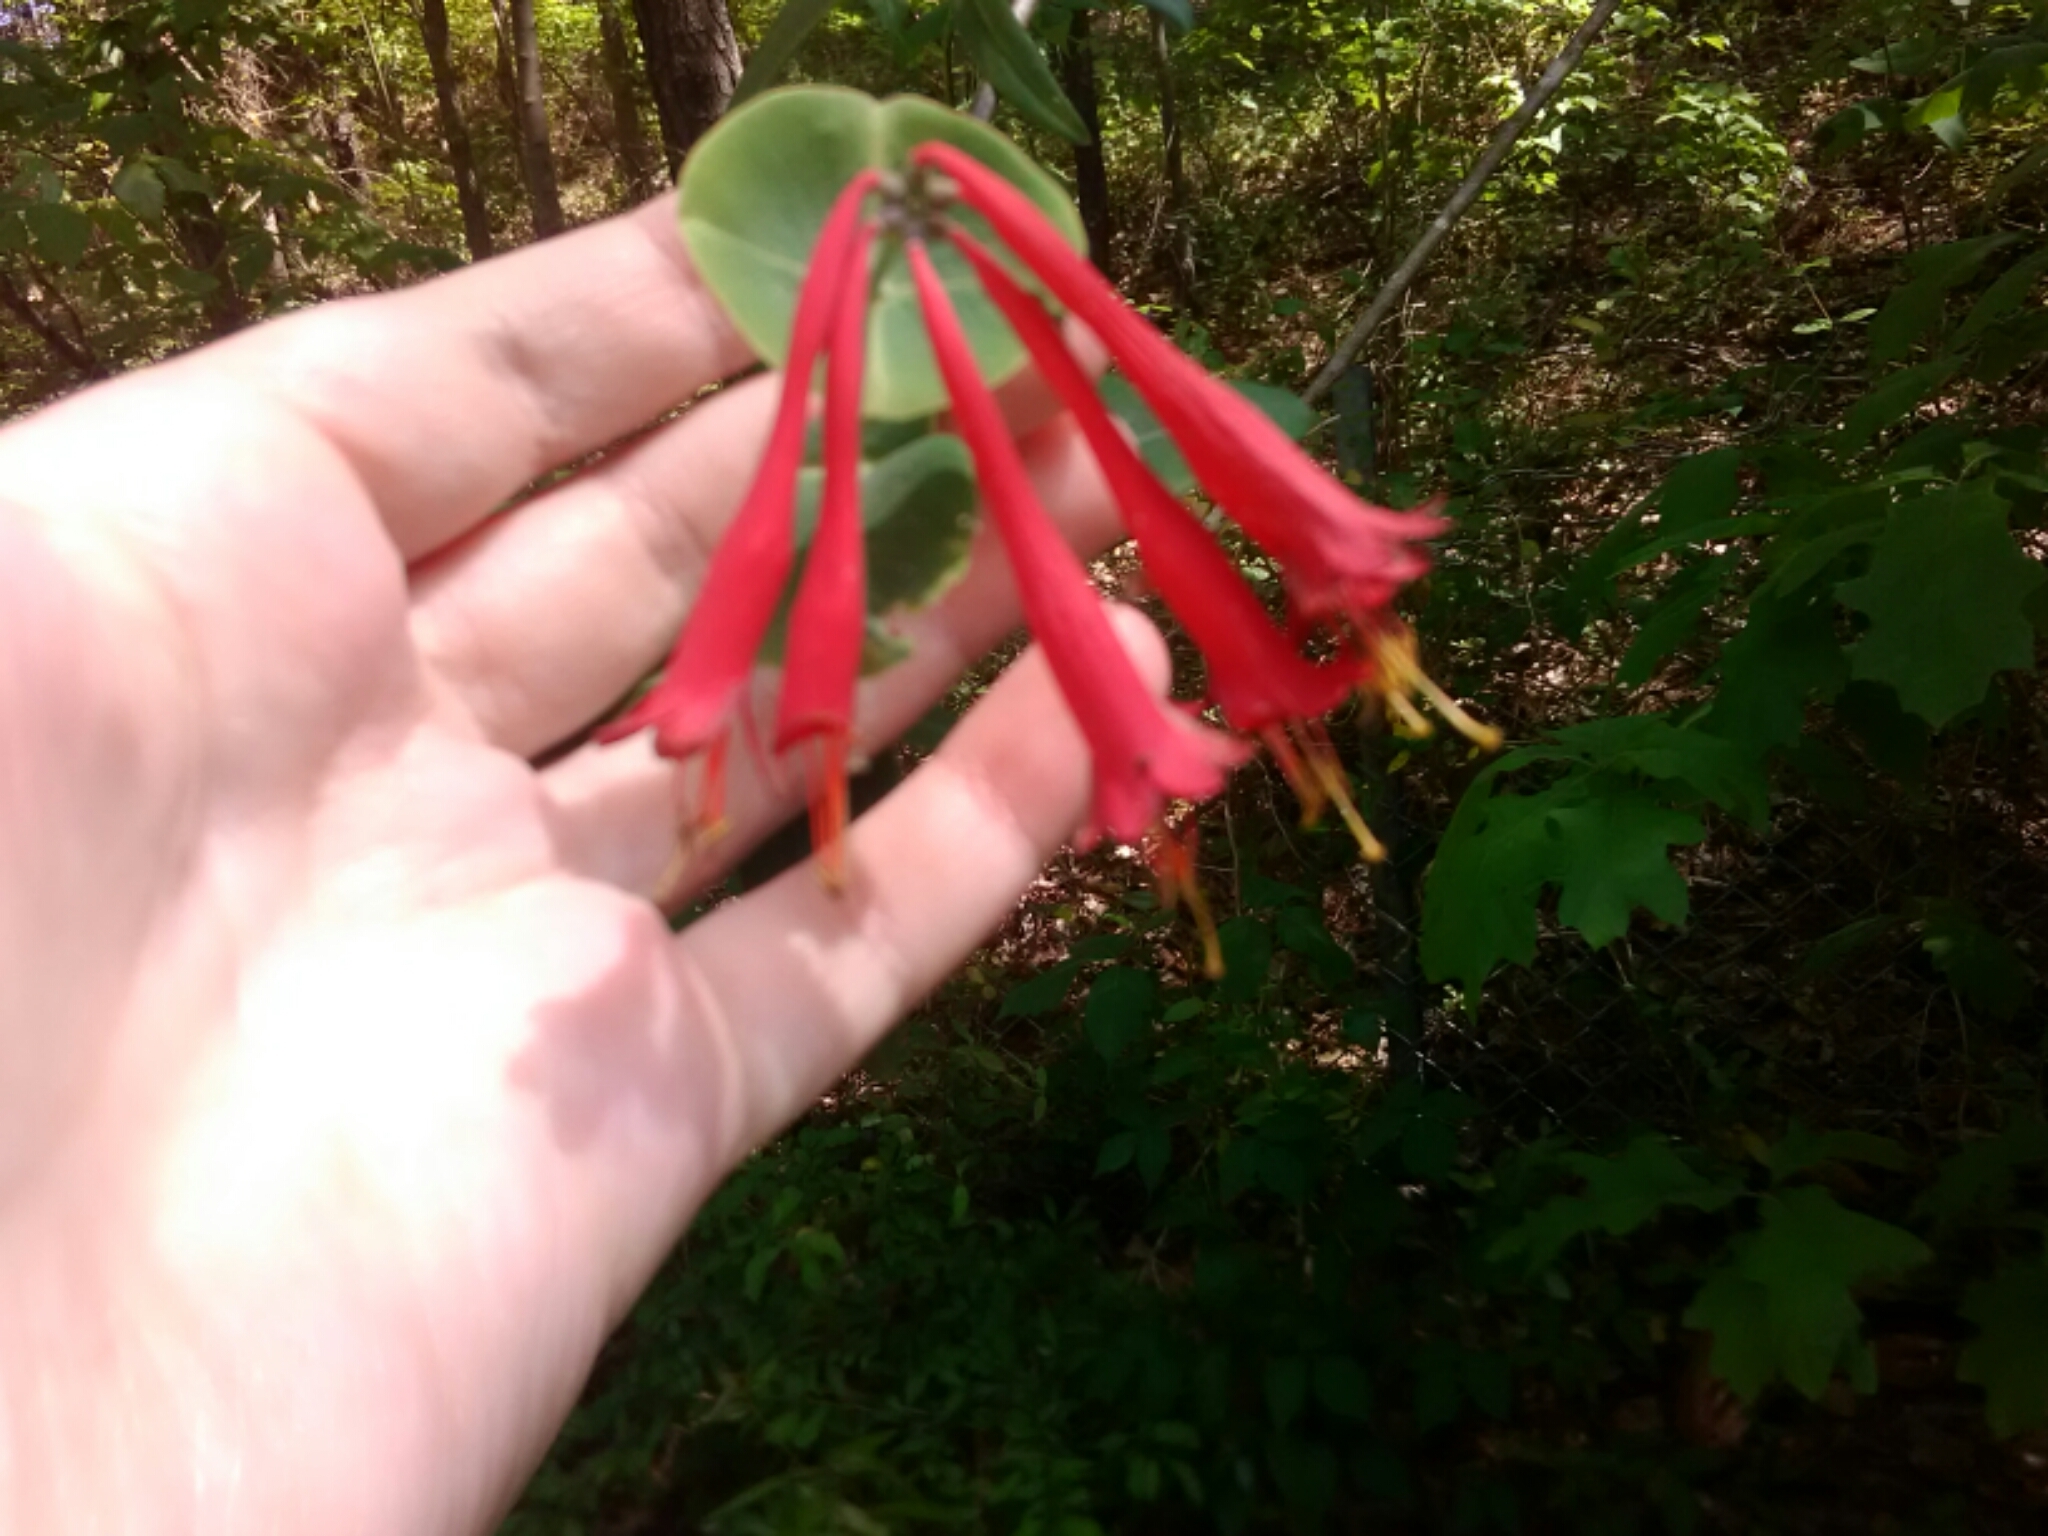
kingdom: Plantae
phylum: Tracheophyta
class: Magnoliopsida
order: Dipsacales
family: Caprifoliaceae
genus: Lonicera
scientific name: Lonicera sempervirens
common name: Coral honeysuckle
